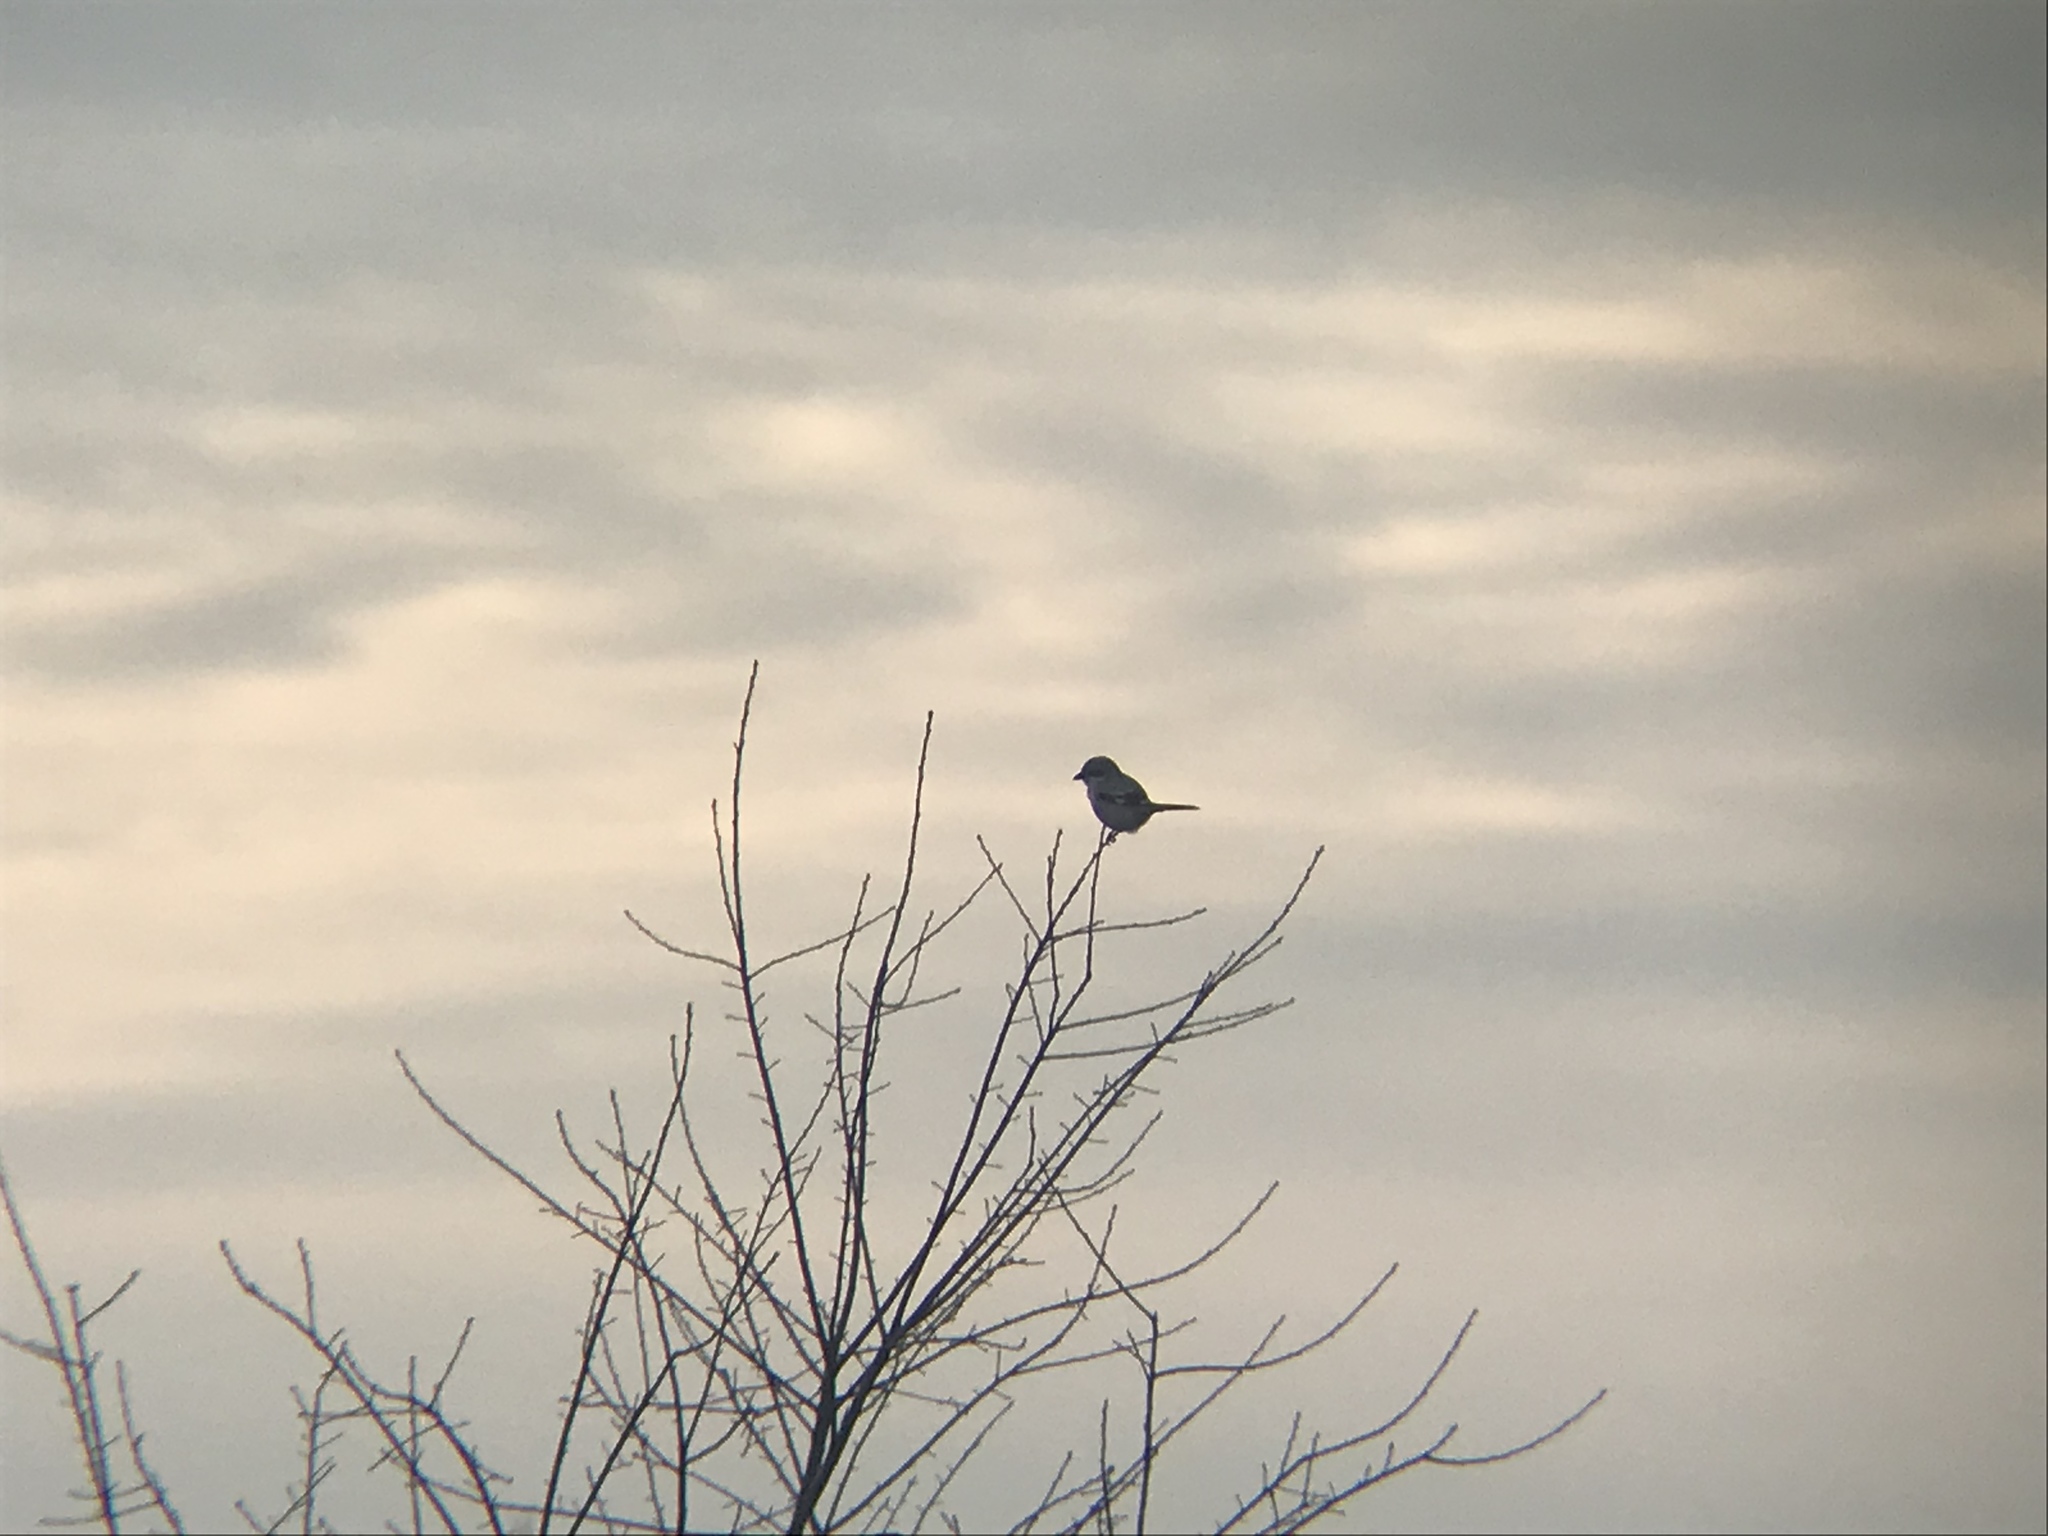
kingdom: Animalia
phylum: Chordata
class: Aves
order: Passeriformes
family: Laniidae
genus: Lanius
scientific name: Lanius excubitor
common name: Great grey shrike
